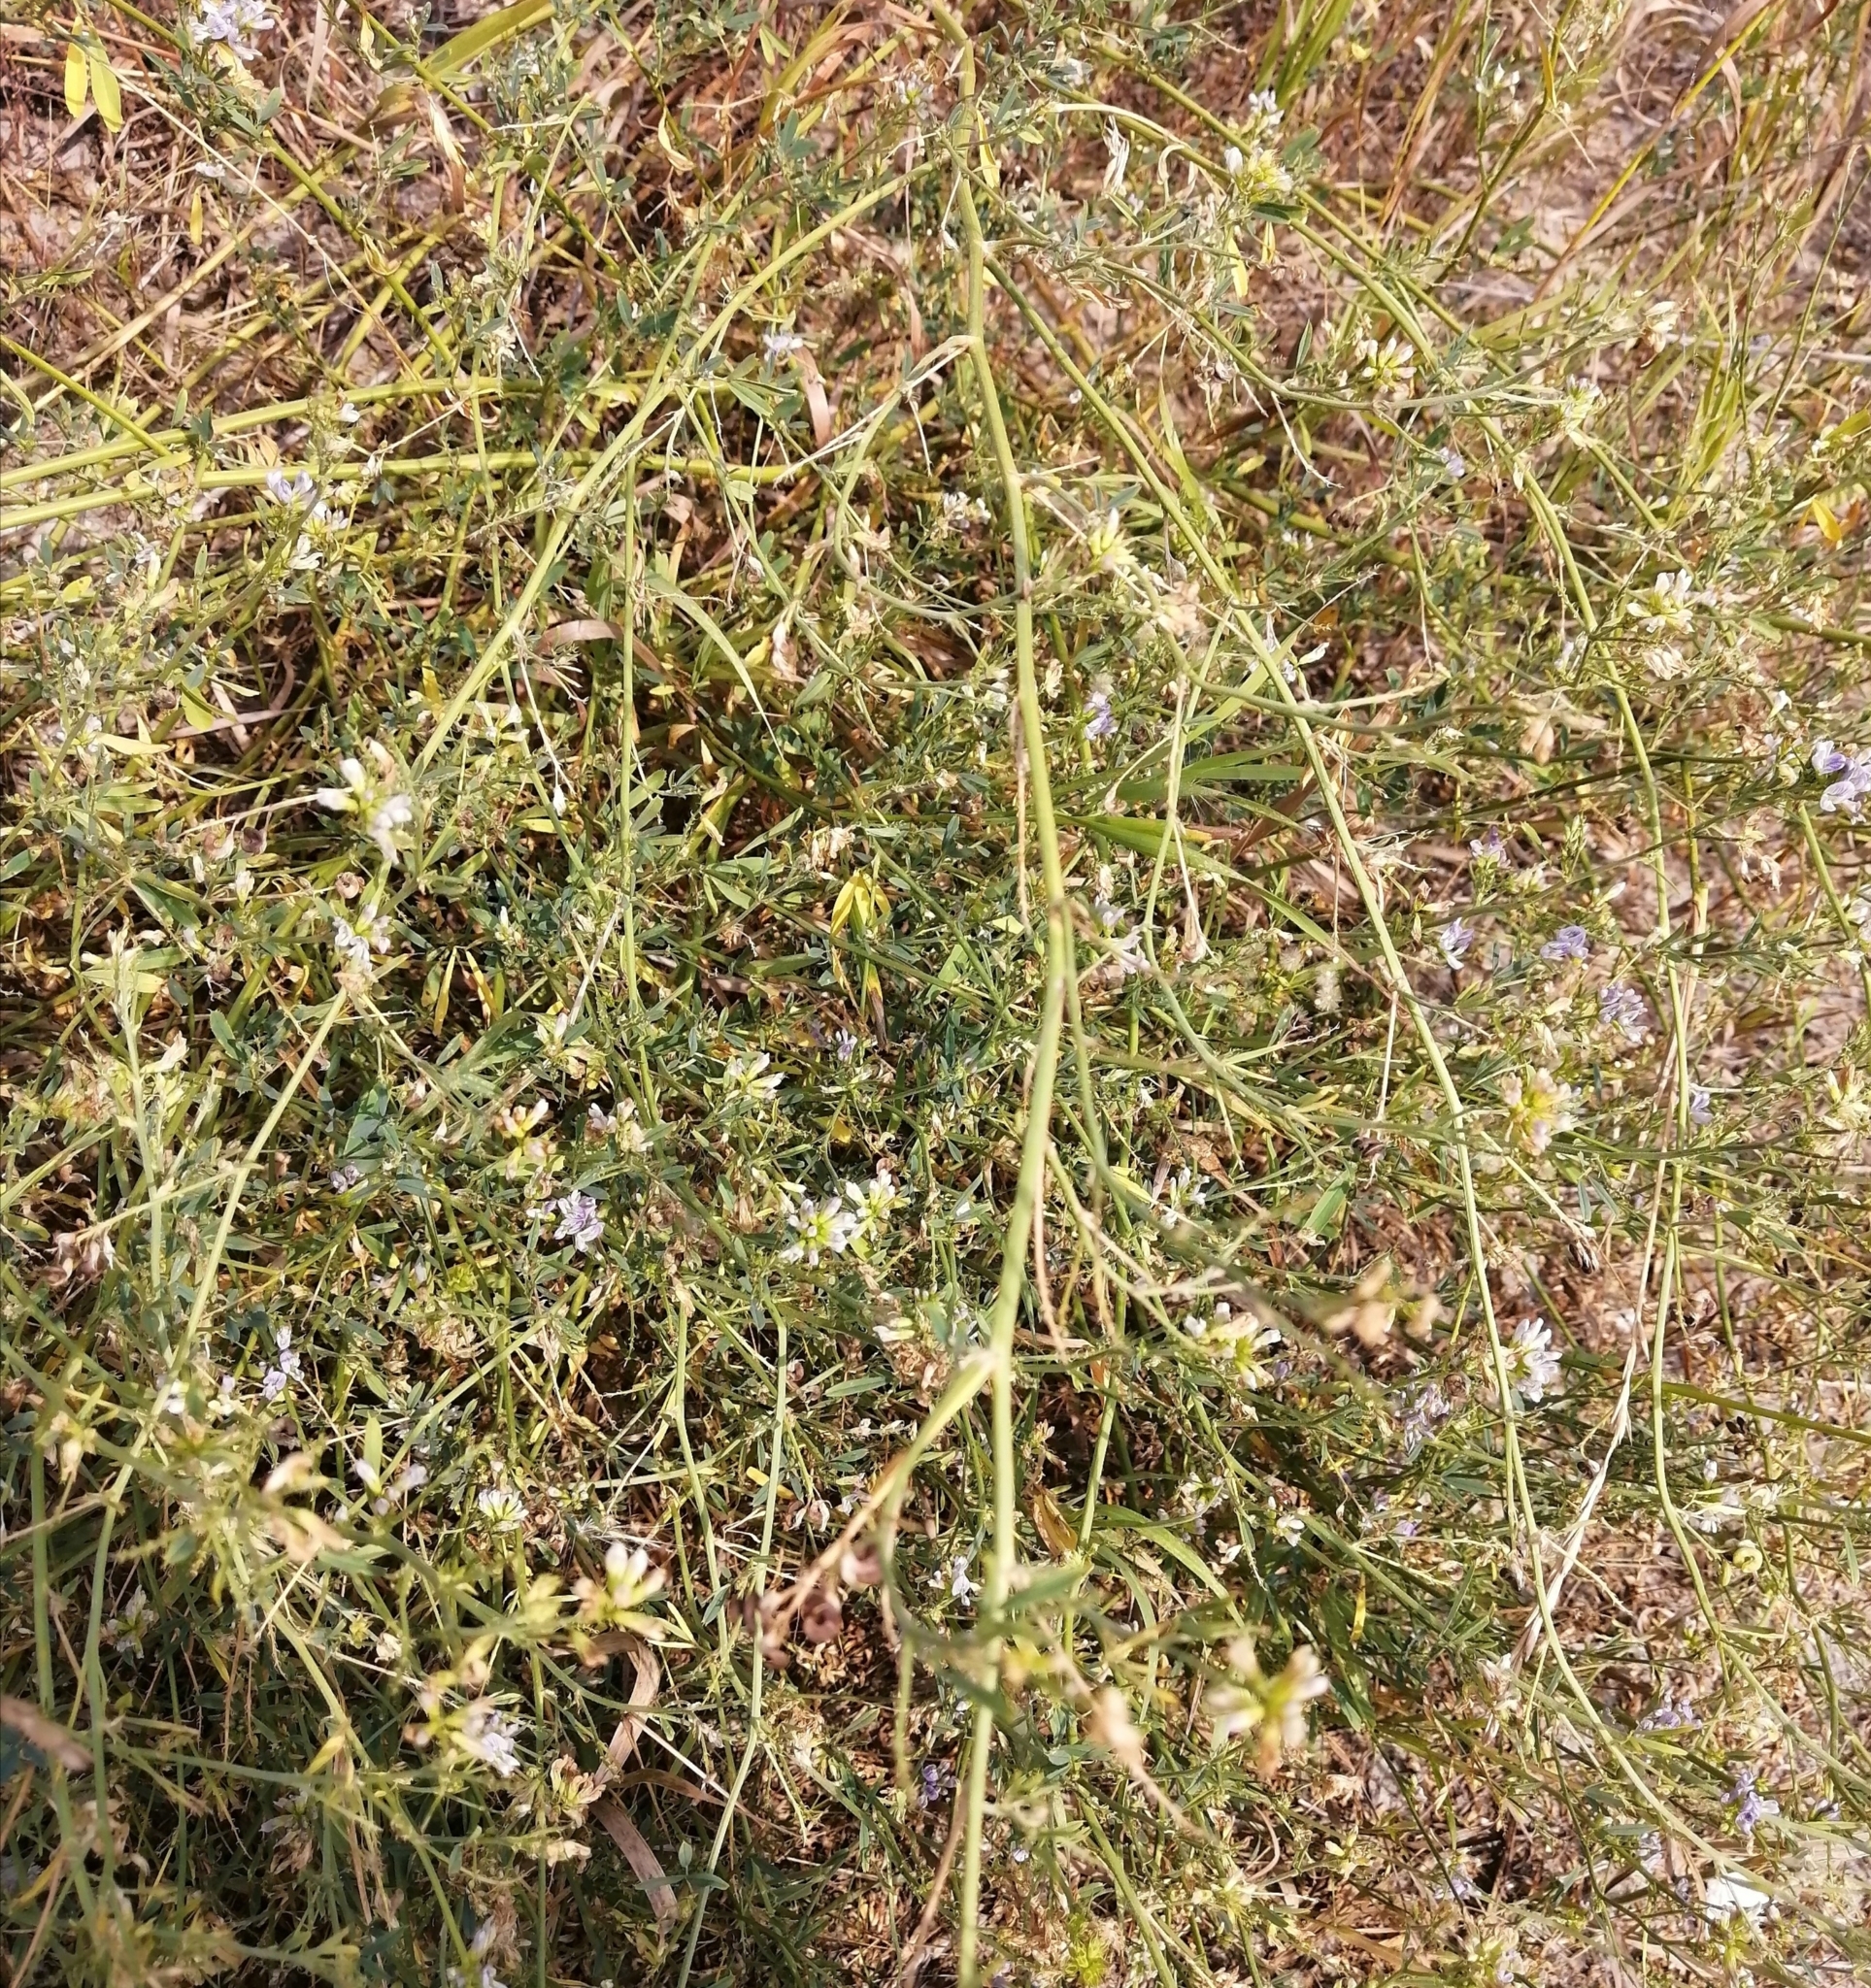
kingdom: Plantae
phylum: Tracheophyta
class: Magnoliopsida
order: Fabales
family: Fabaceae
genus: Medicago
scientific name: Medicago varia
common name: Sand lucerne
